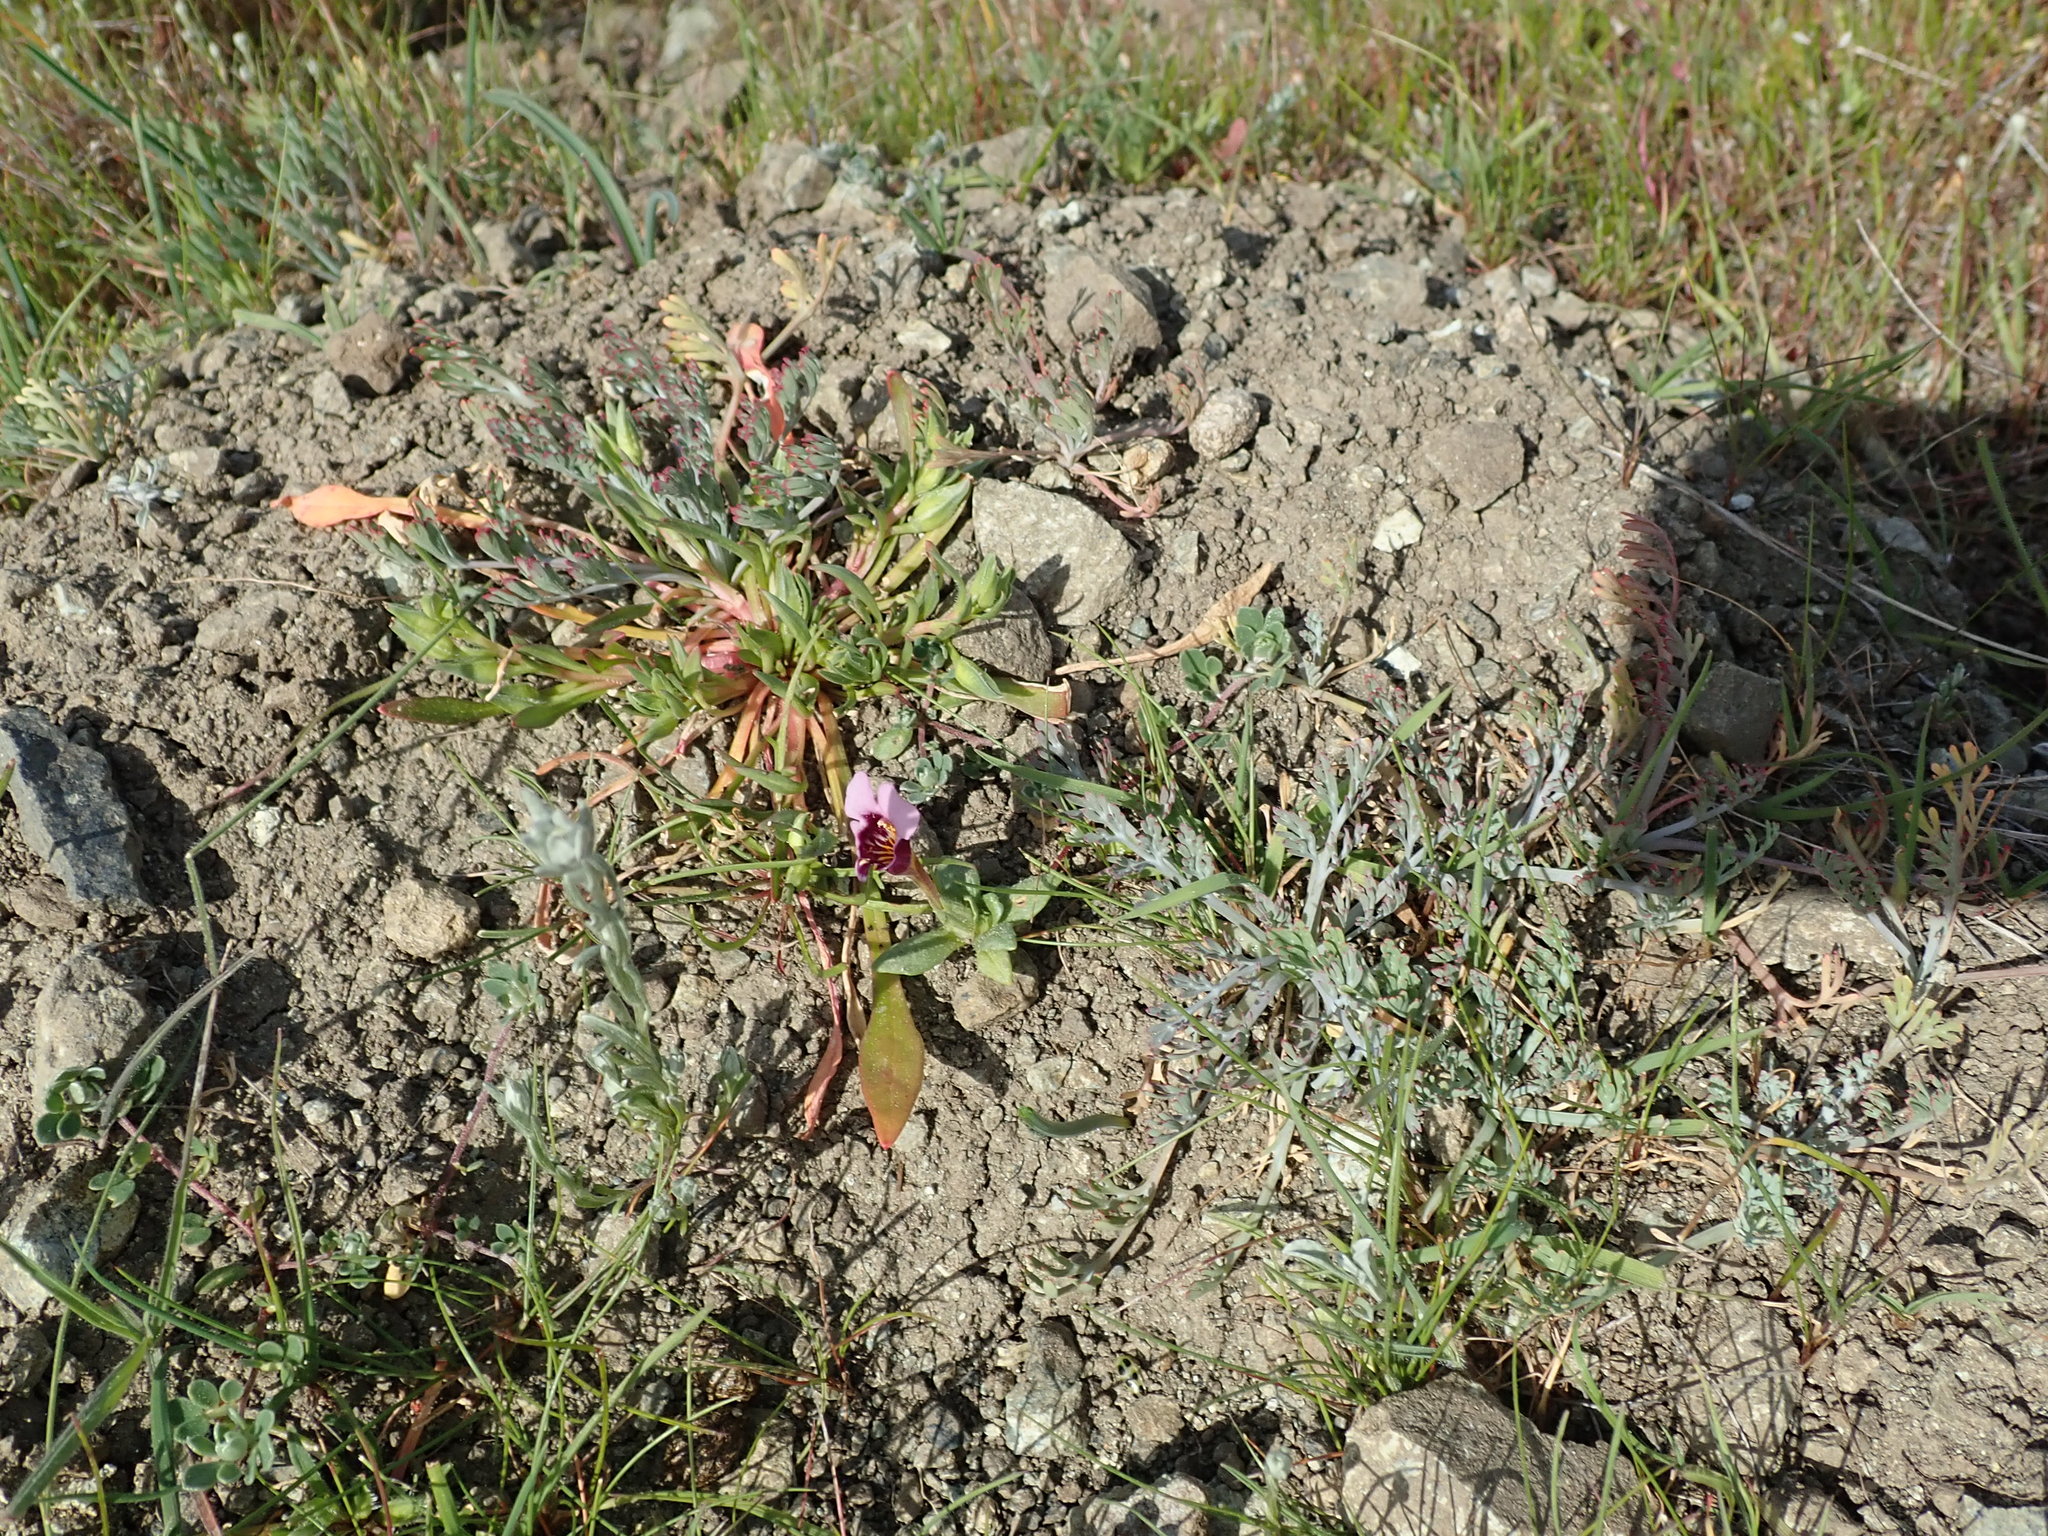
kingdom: Plantae
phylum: Tracheophyta
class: Magnoliopsida
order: Lamiales
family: Phrymaceae
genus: Diplacus
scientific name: Diplacus douglasii
